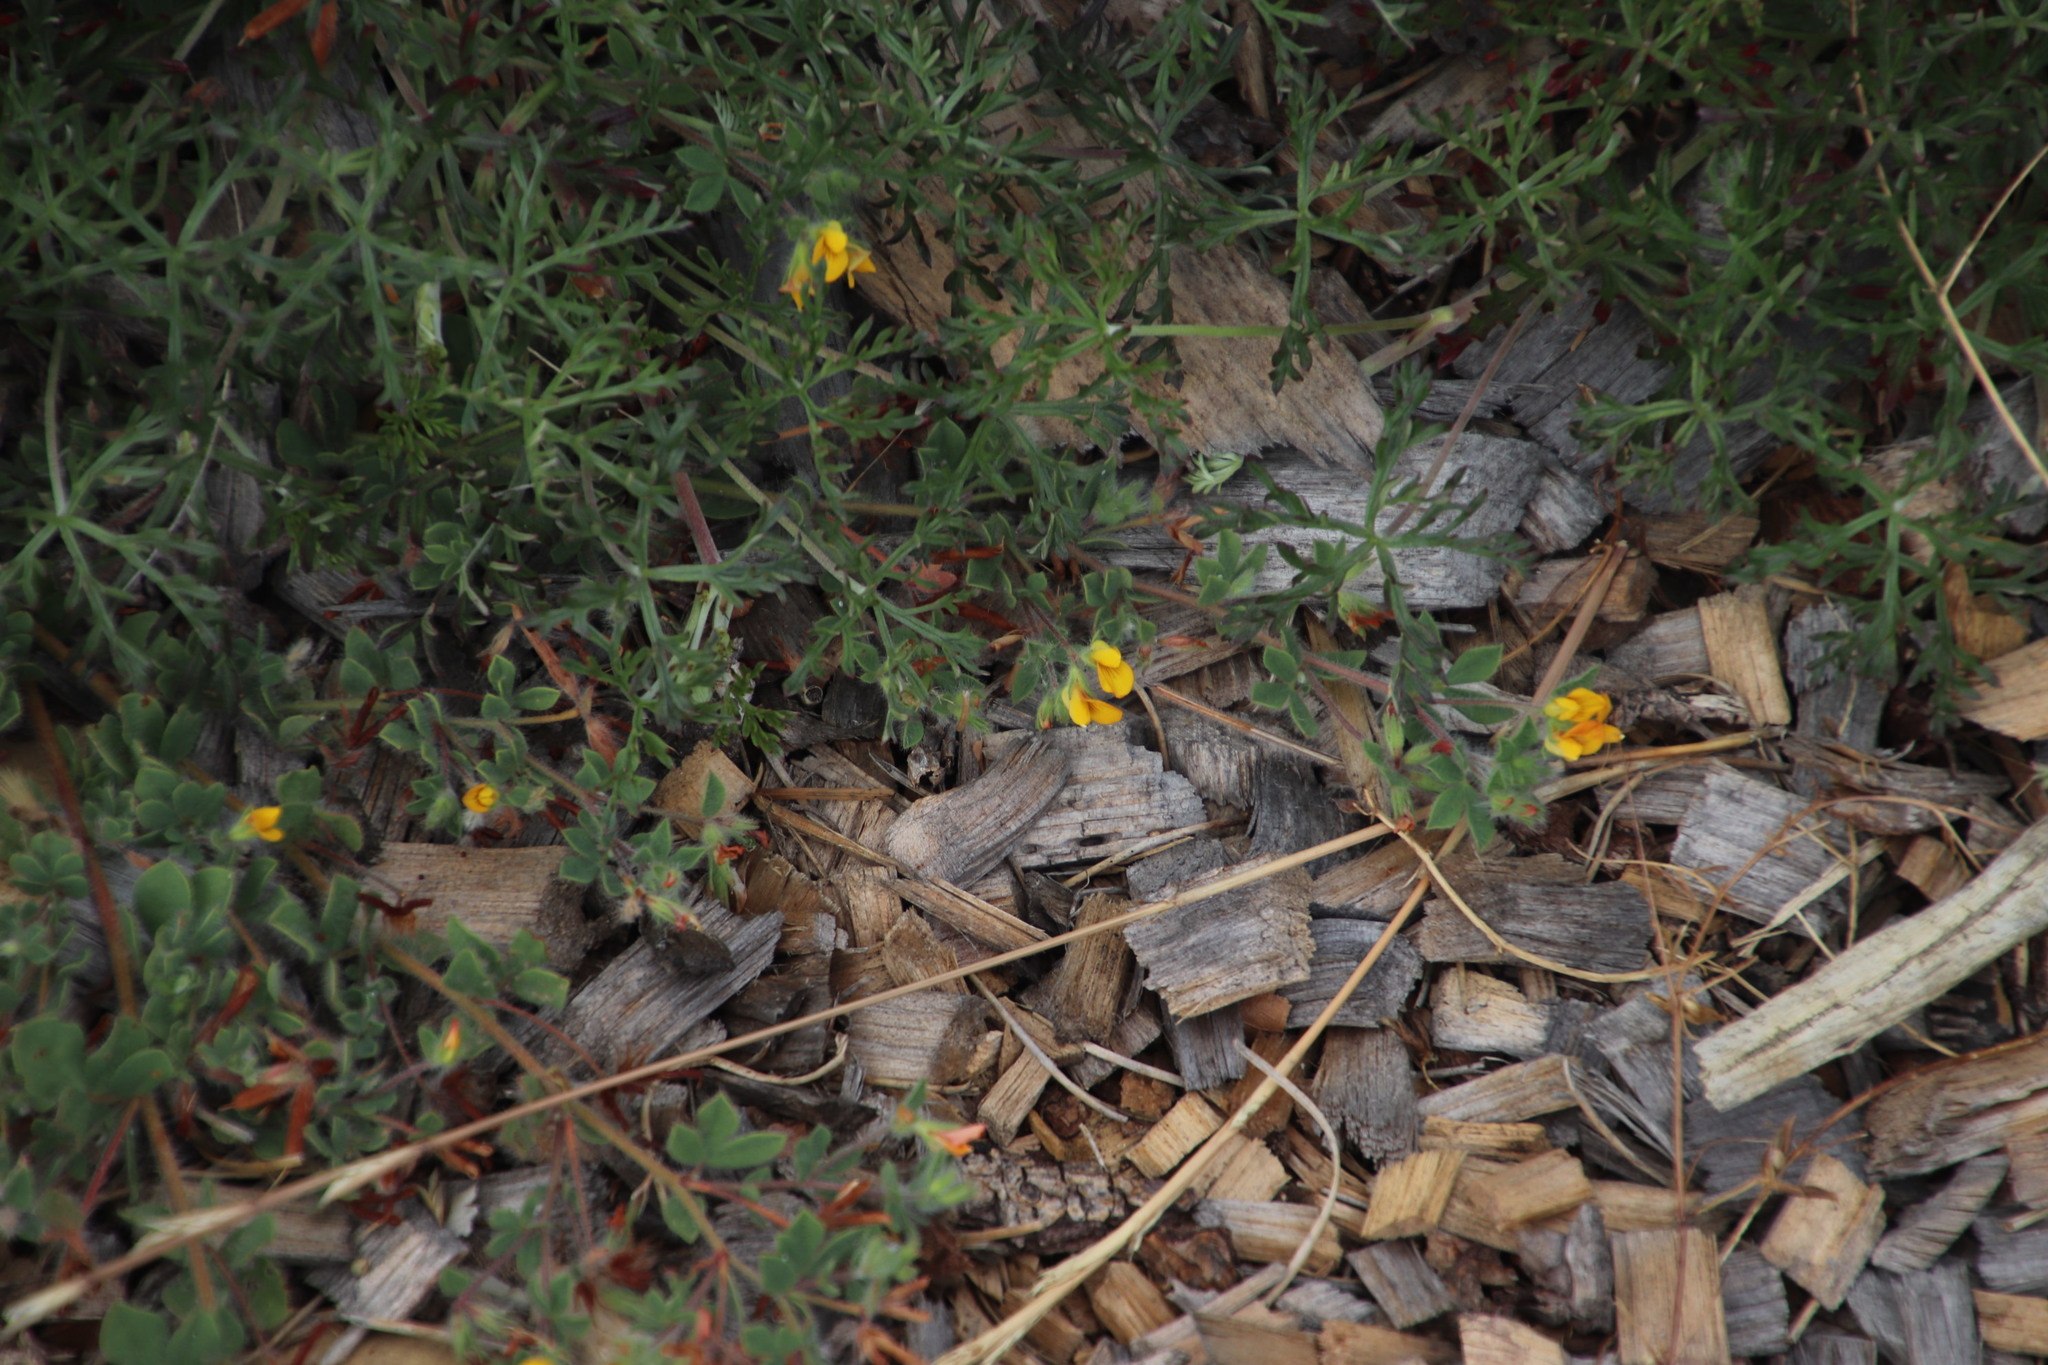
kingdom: Plantae
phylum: Tracheophyta
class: Magnoliopsida
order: Fabales
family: Fabaceae
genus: Lotus
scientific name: Lotus subbiflorus
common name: Hairy bird's-foot trefoil
